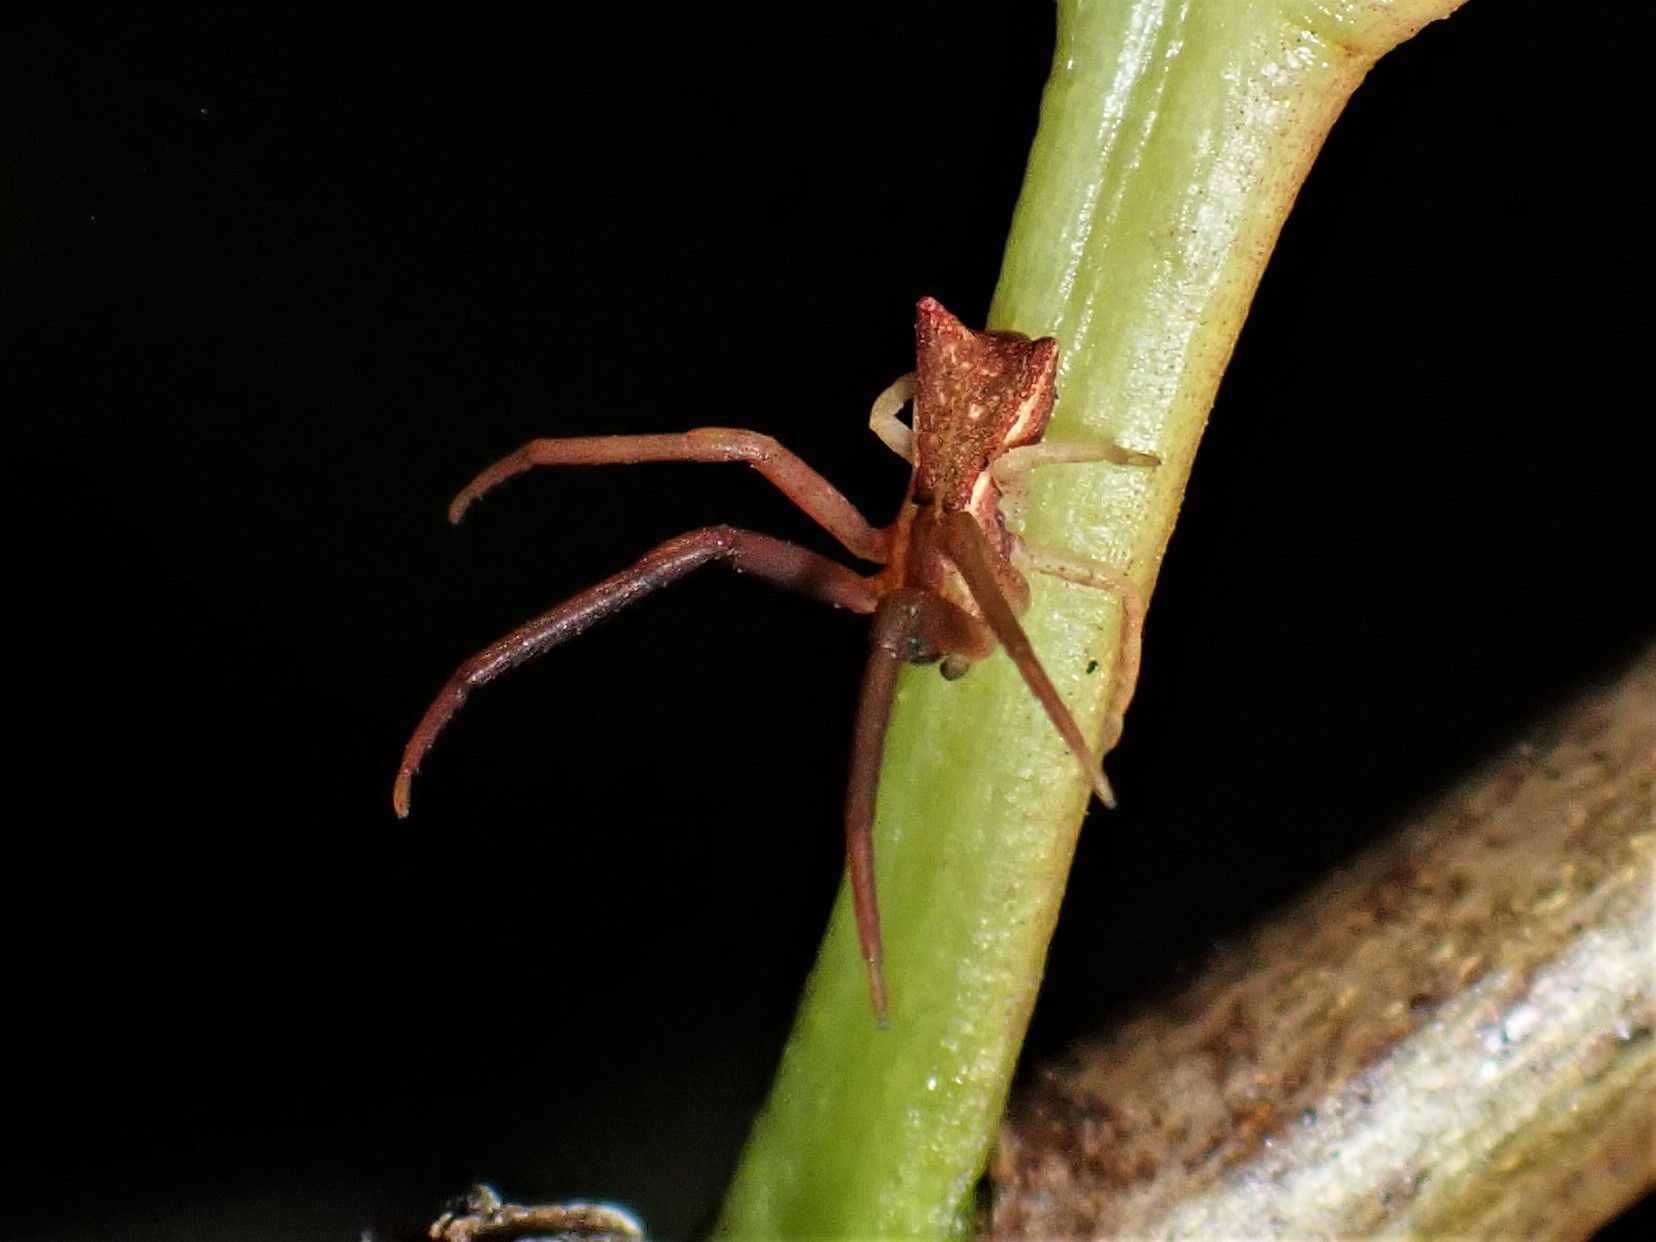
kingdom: Animalia
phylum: Arthropoda
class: Arachnida
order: Araneae
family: Thomisidae
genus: Sidymella
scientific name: Sidymella trapezia
